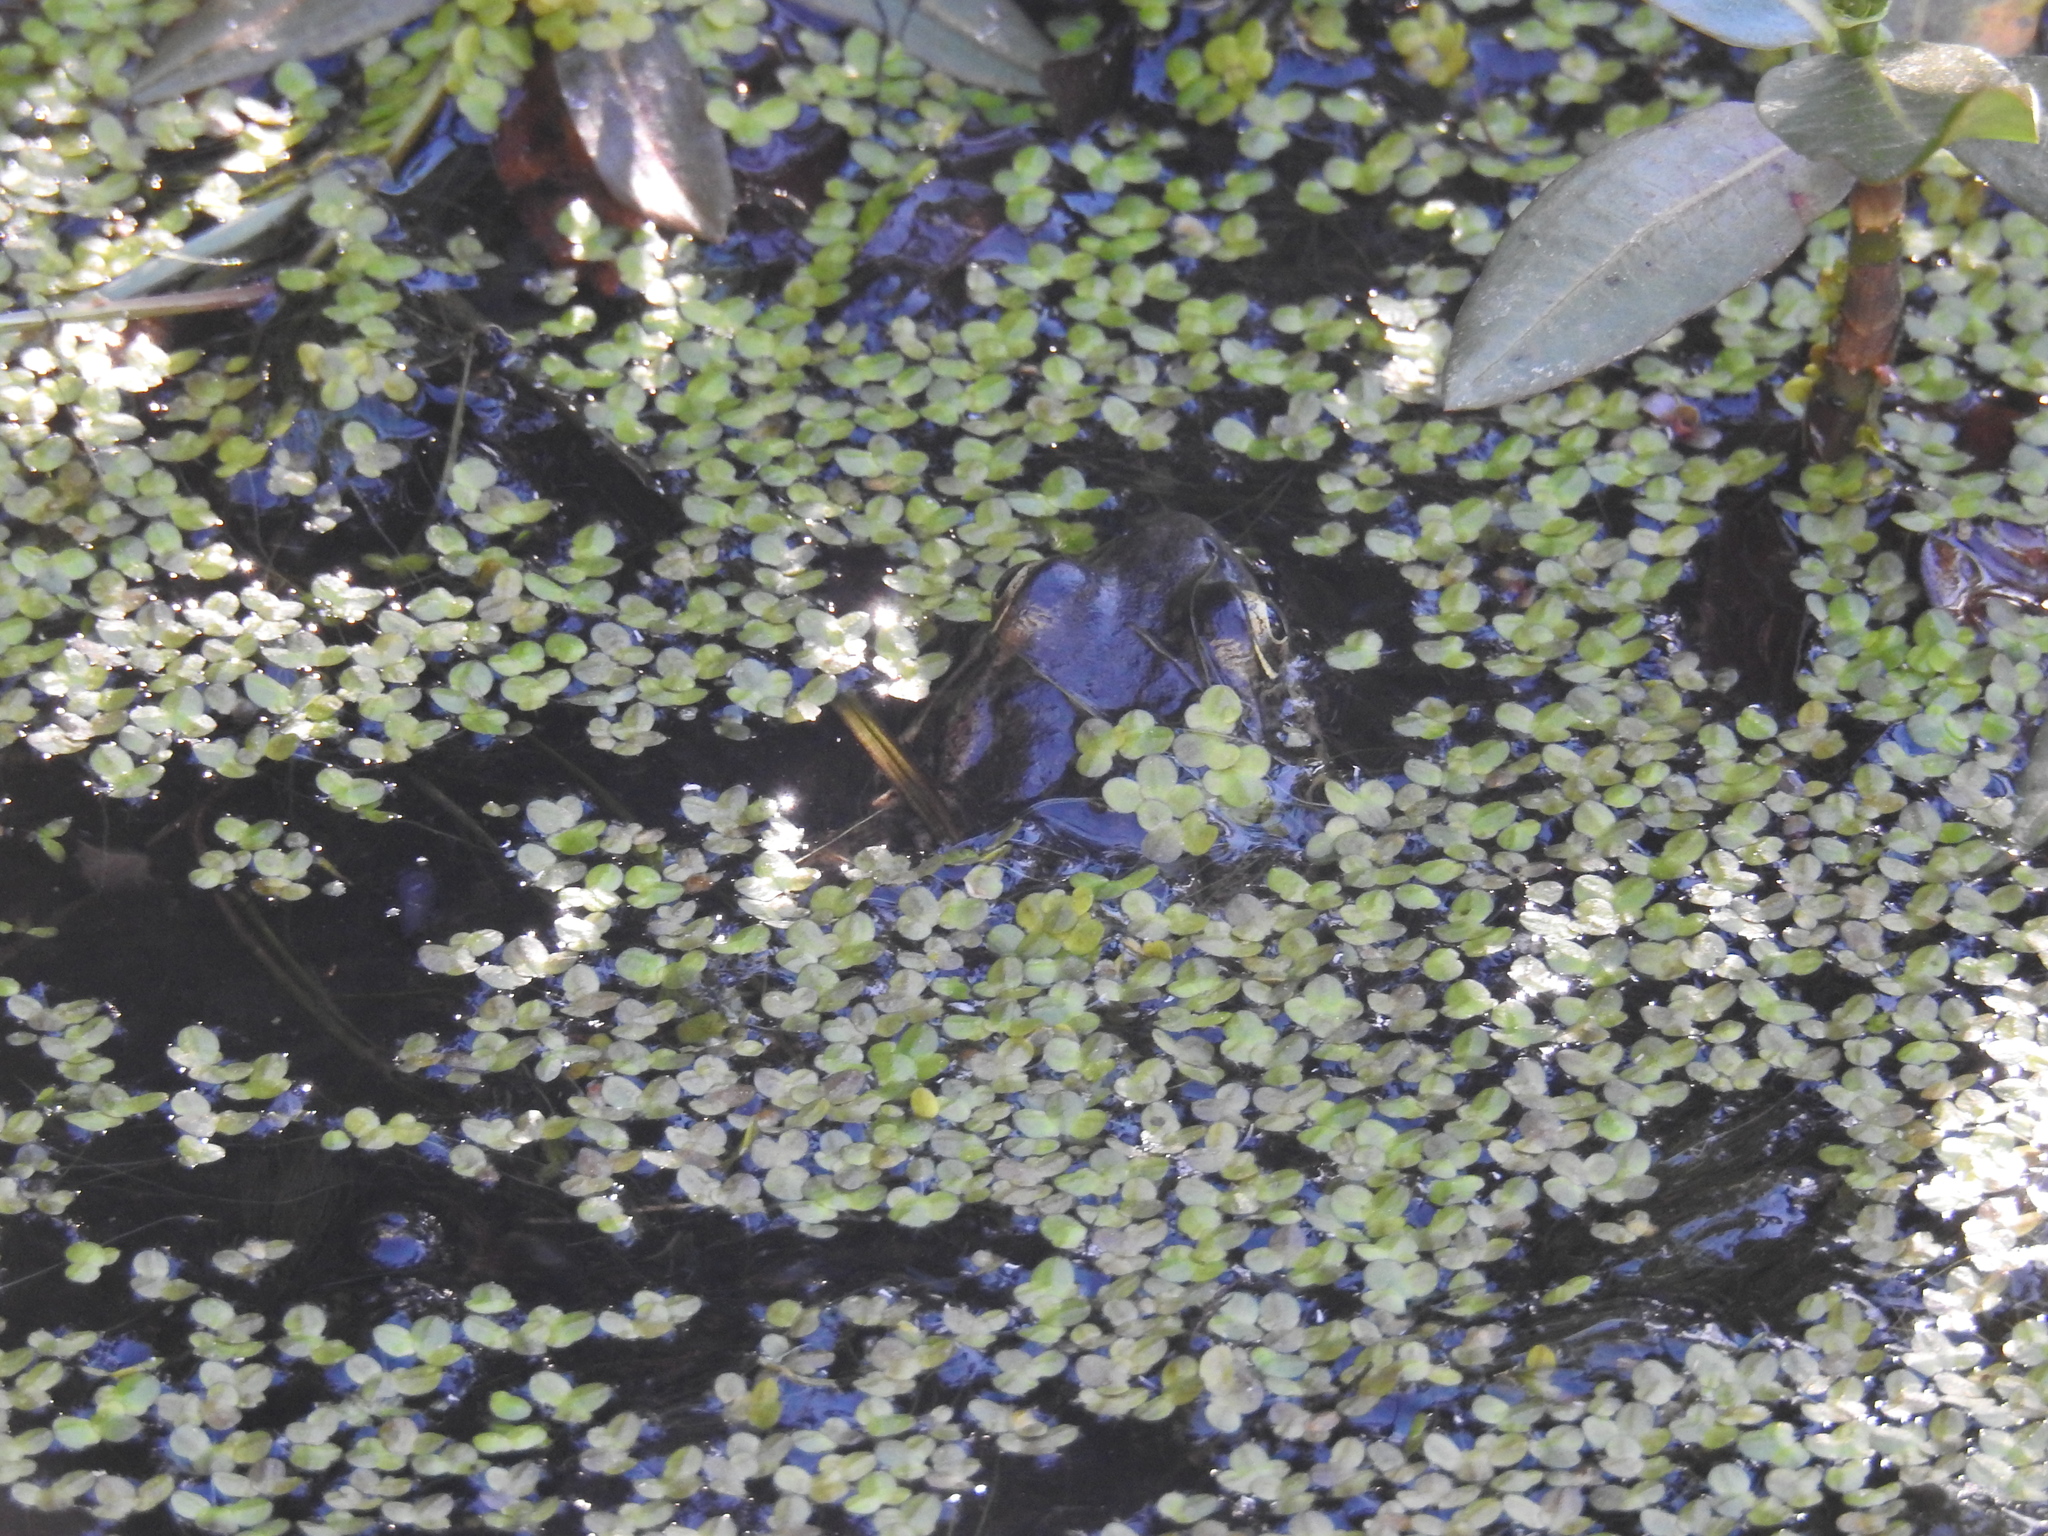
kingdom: Animalia
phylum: Chordata
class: Amphibia
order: Anura
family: Ranidae
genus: Rana
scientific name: Rana draytonii
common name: California red-legged frog
